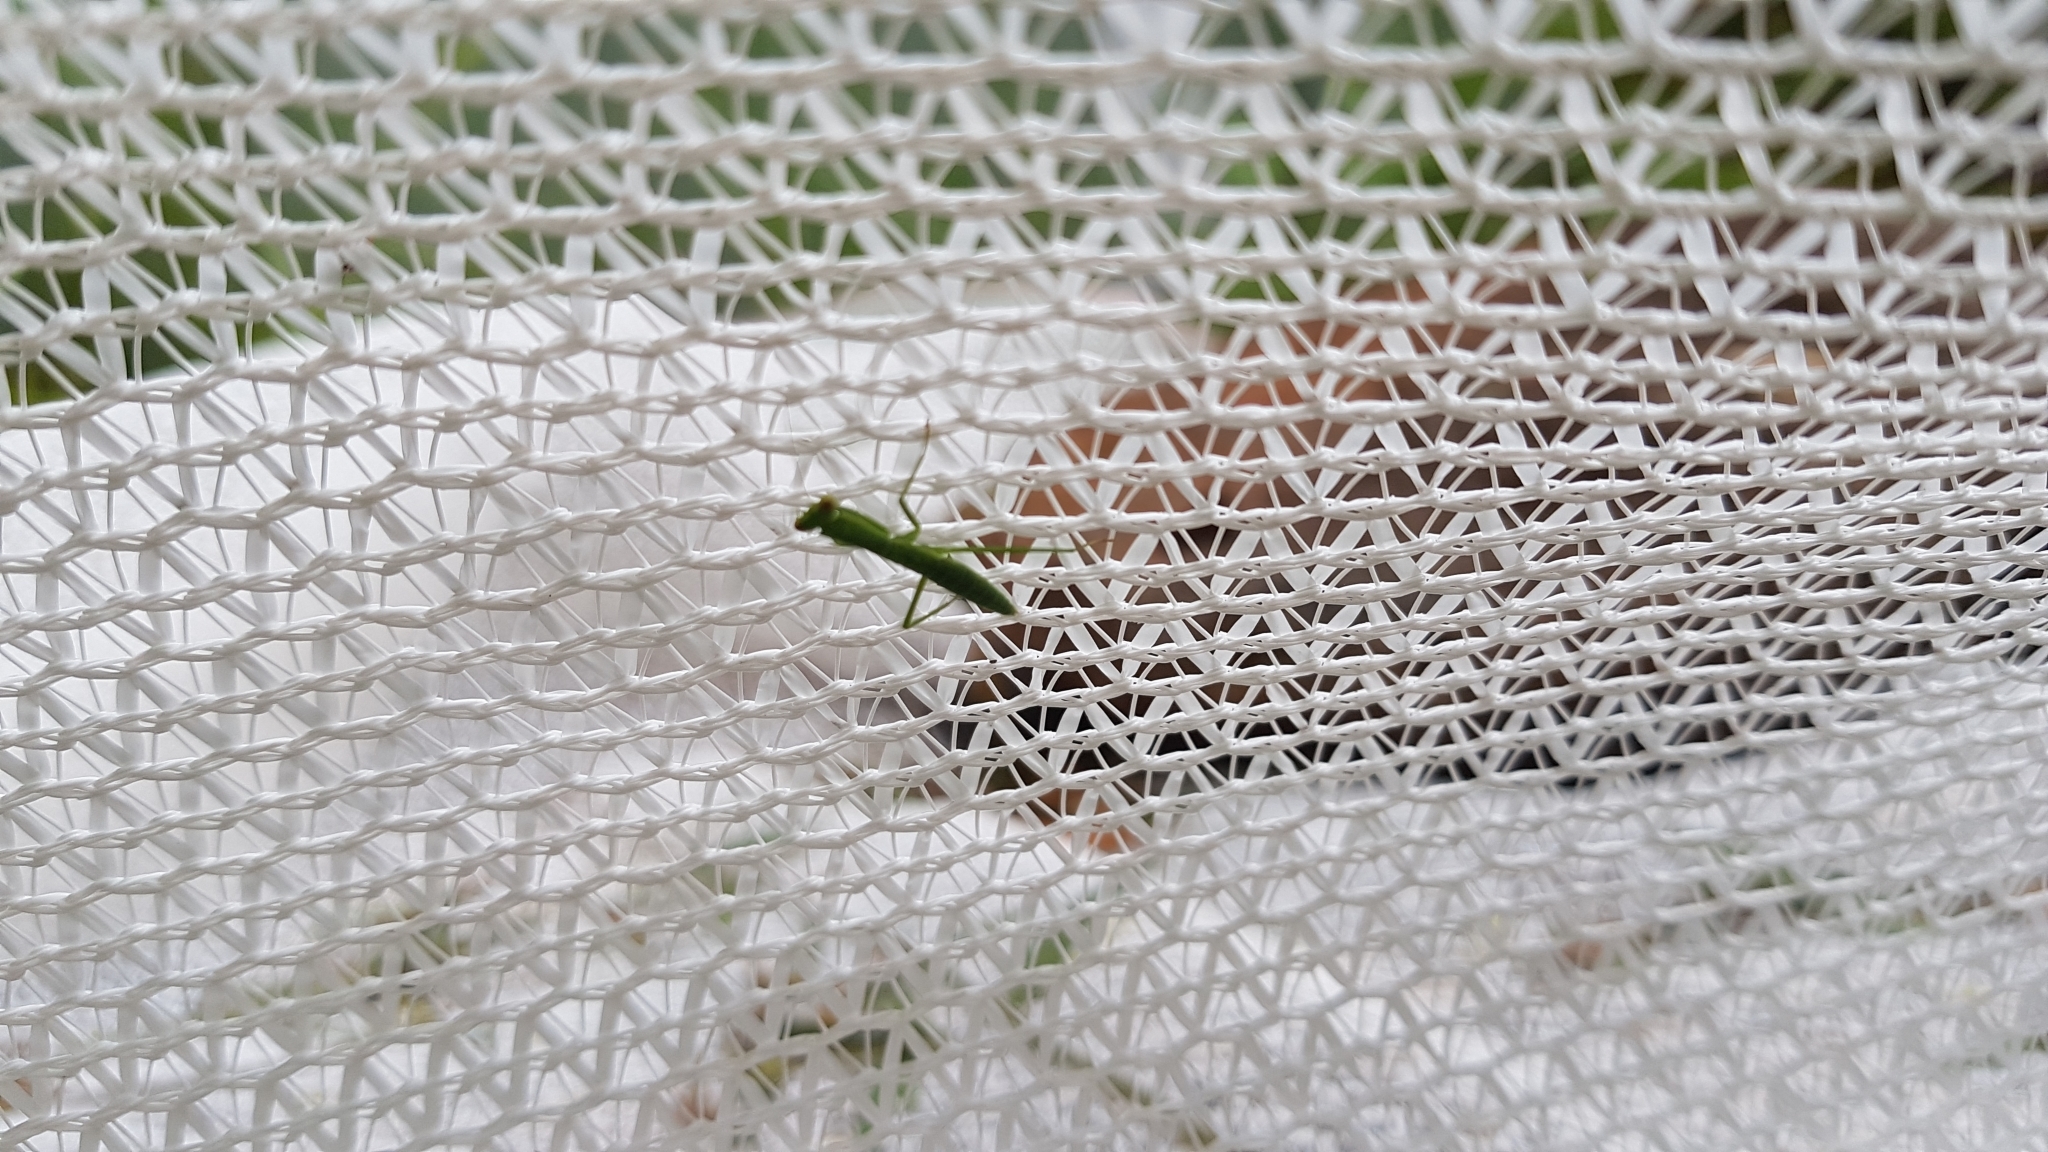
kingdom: Animalia
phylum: Arthropoda
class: Insecta
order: Mantodea
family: Mantidae
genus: Orthodera
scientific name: Orthodera ministralis
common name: Mantis
